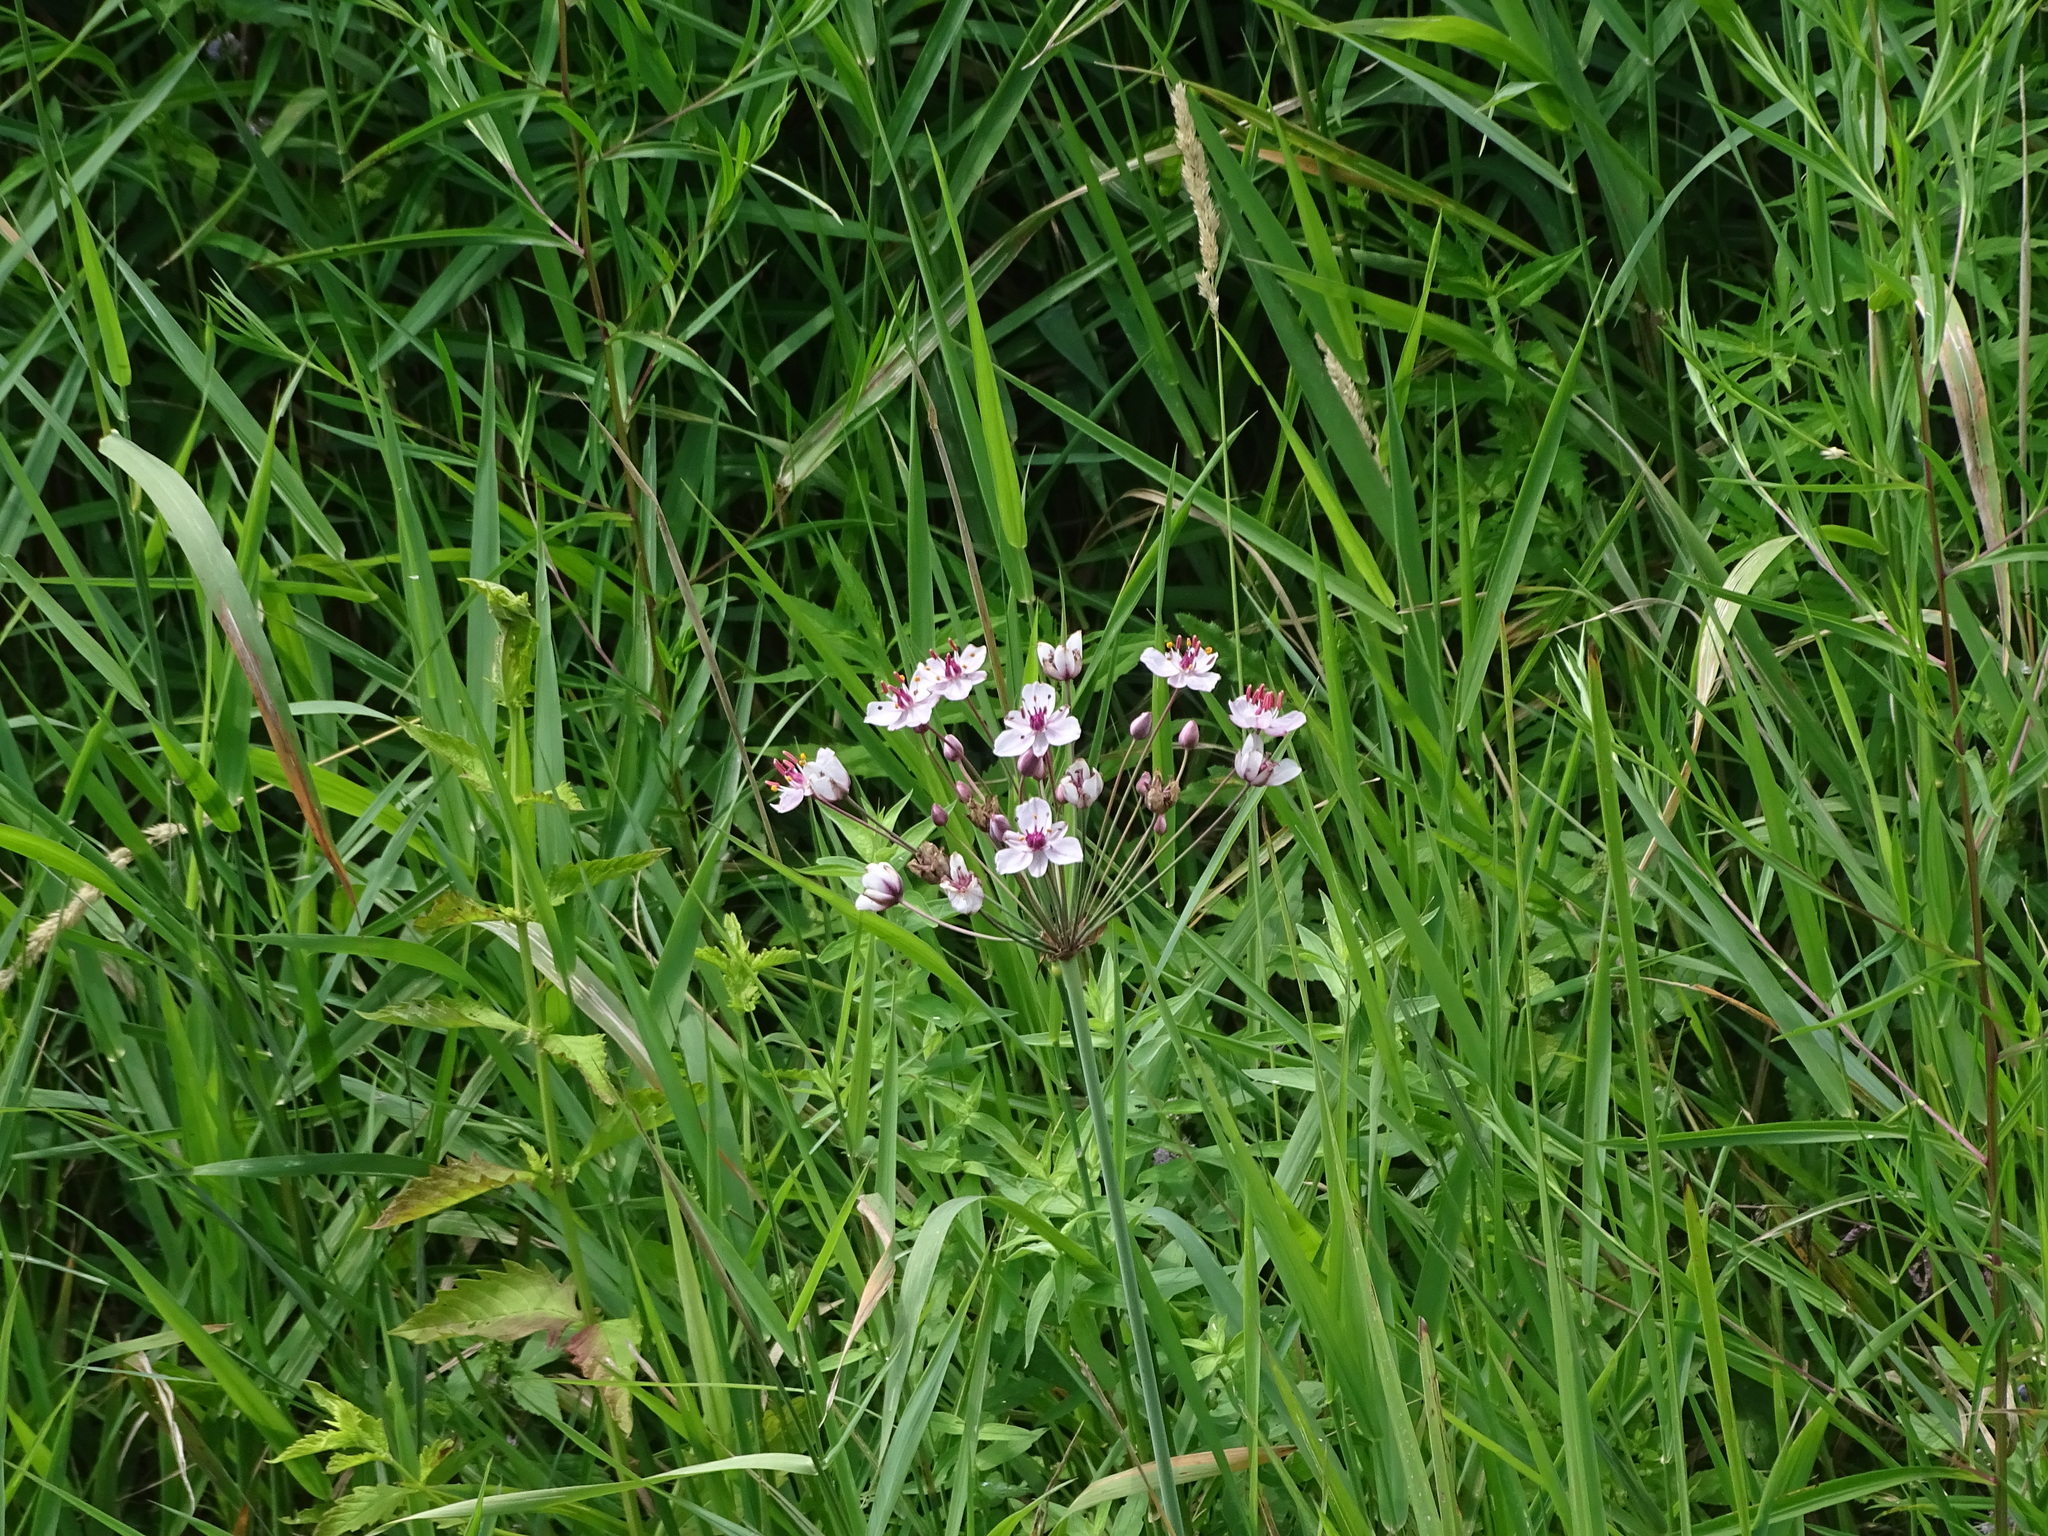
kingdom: Plantae
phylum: Tracheophyta
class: Liliopsida
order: Alismatales
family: Butomaceae
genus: Butomus
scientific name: Butomus umbellatus
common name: Flowering-rush
